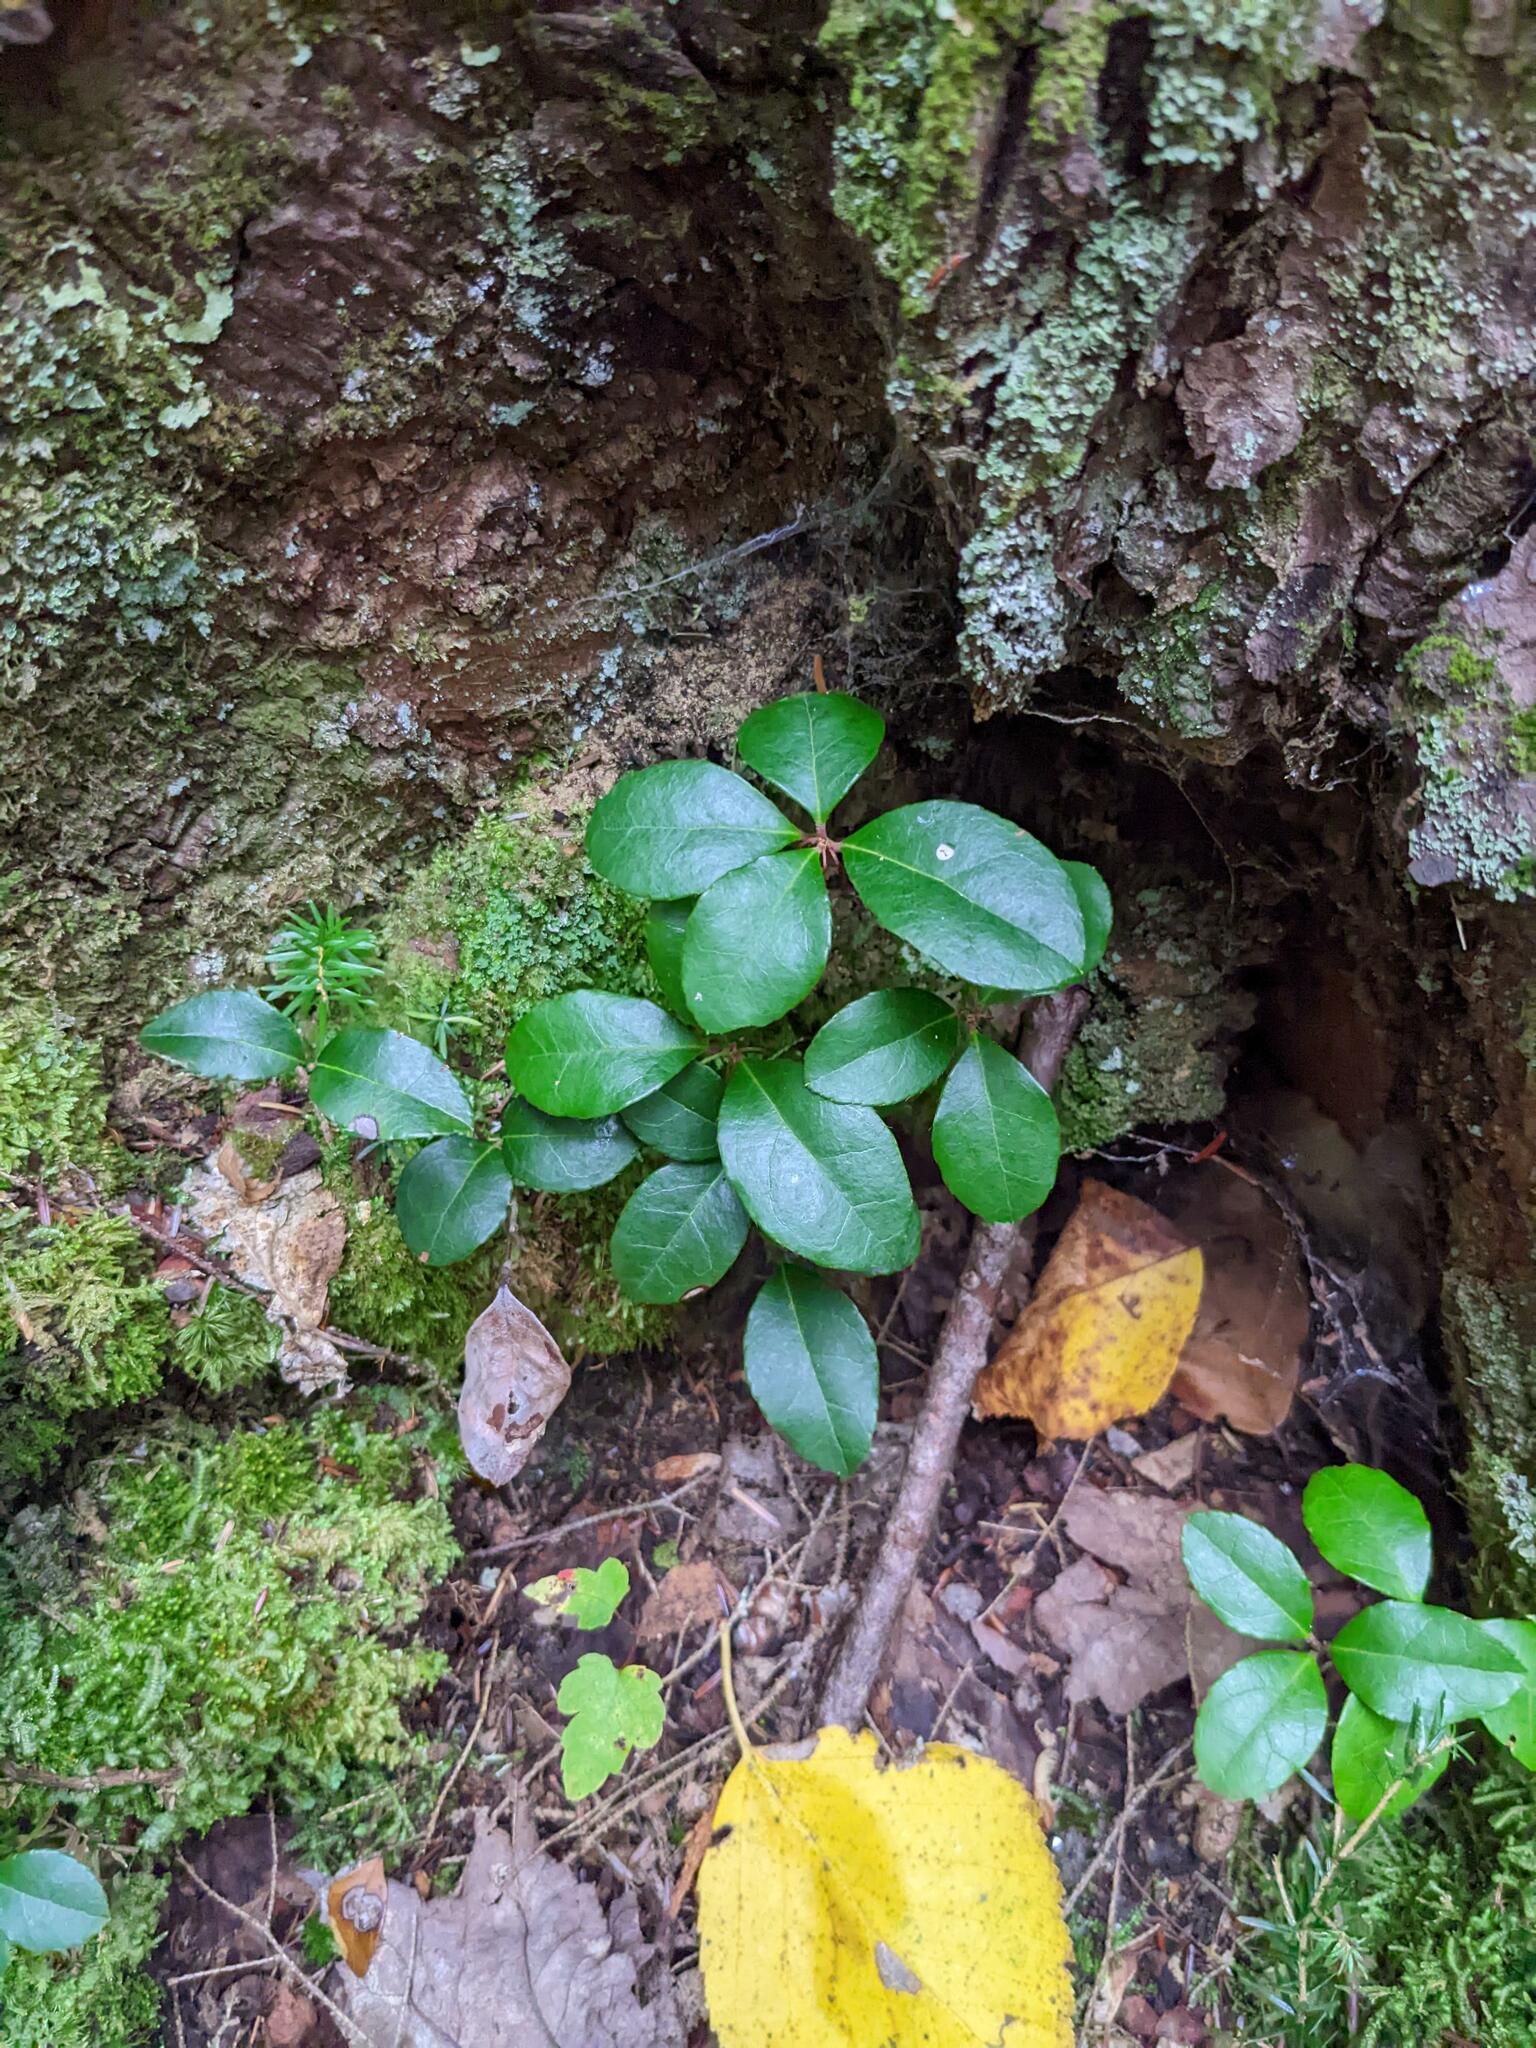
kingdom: Plantae
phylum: Tracheophyta
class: Magnoliopsida
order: Ericales
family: Ericaceae
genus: Gaultheria
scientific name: Gaultheria procumbens
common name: Checkerberry
